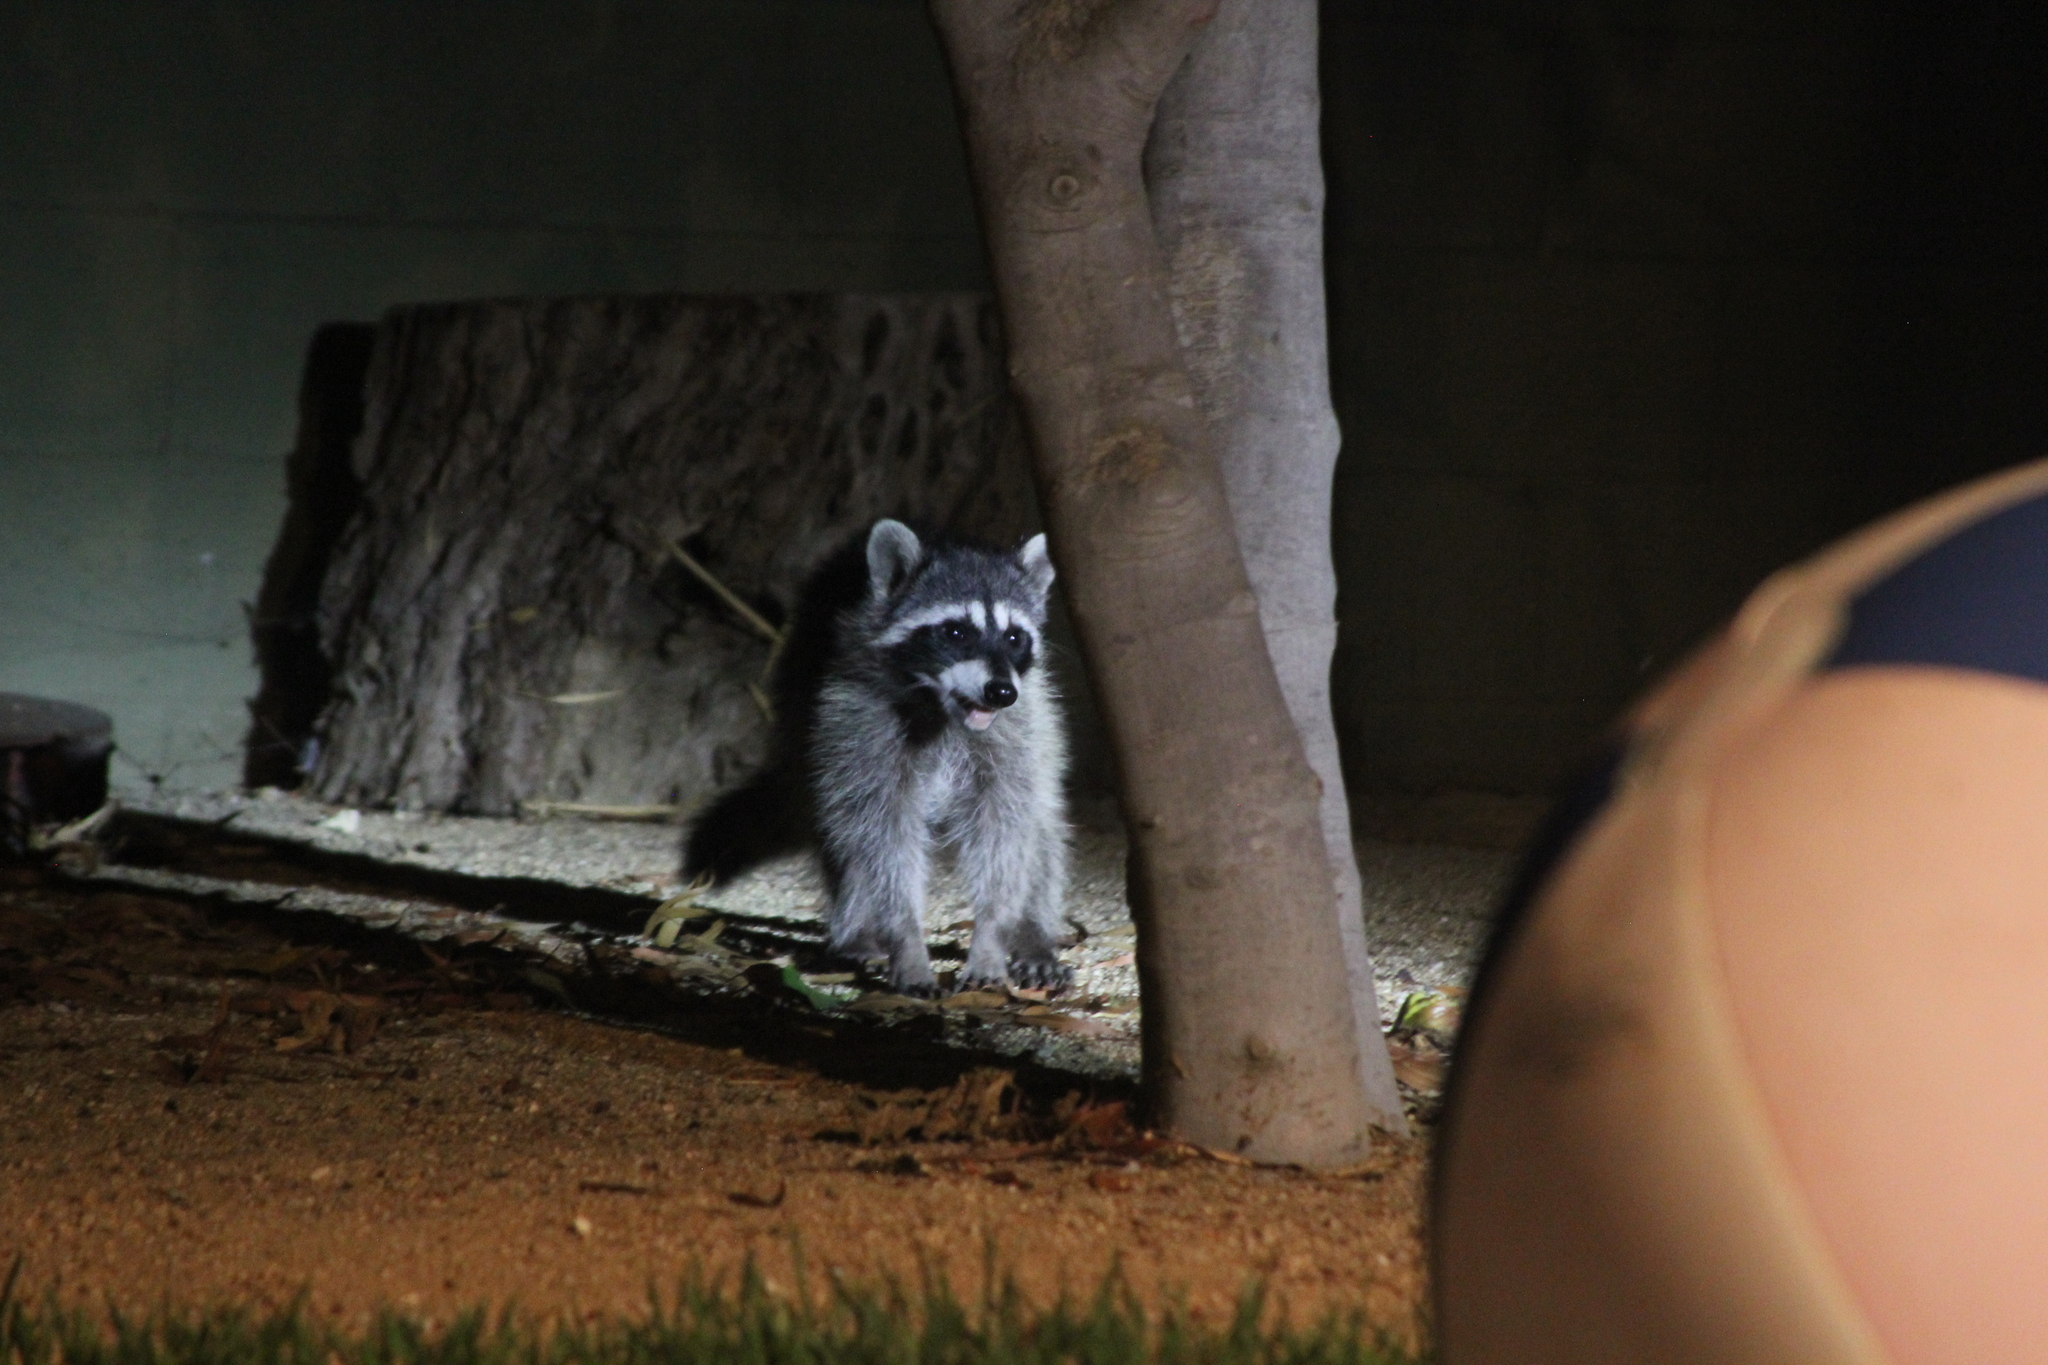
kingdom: Animalia
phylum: Chordata
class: Mammalia
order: Carnivora
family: Procyonidae
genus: Procyon
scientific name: Procyon lotor
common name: Raccoon
